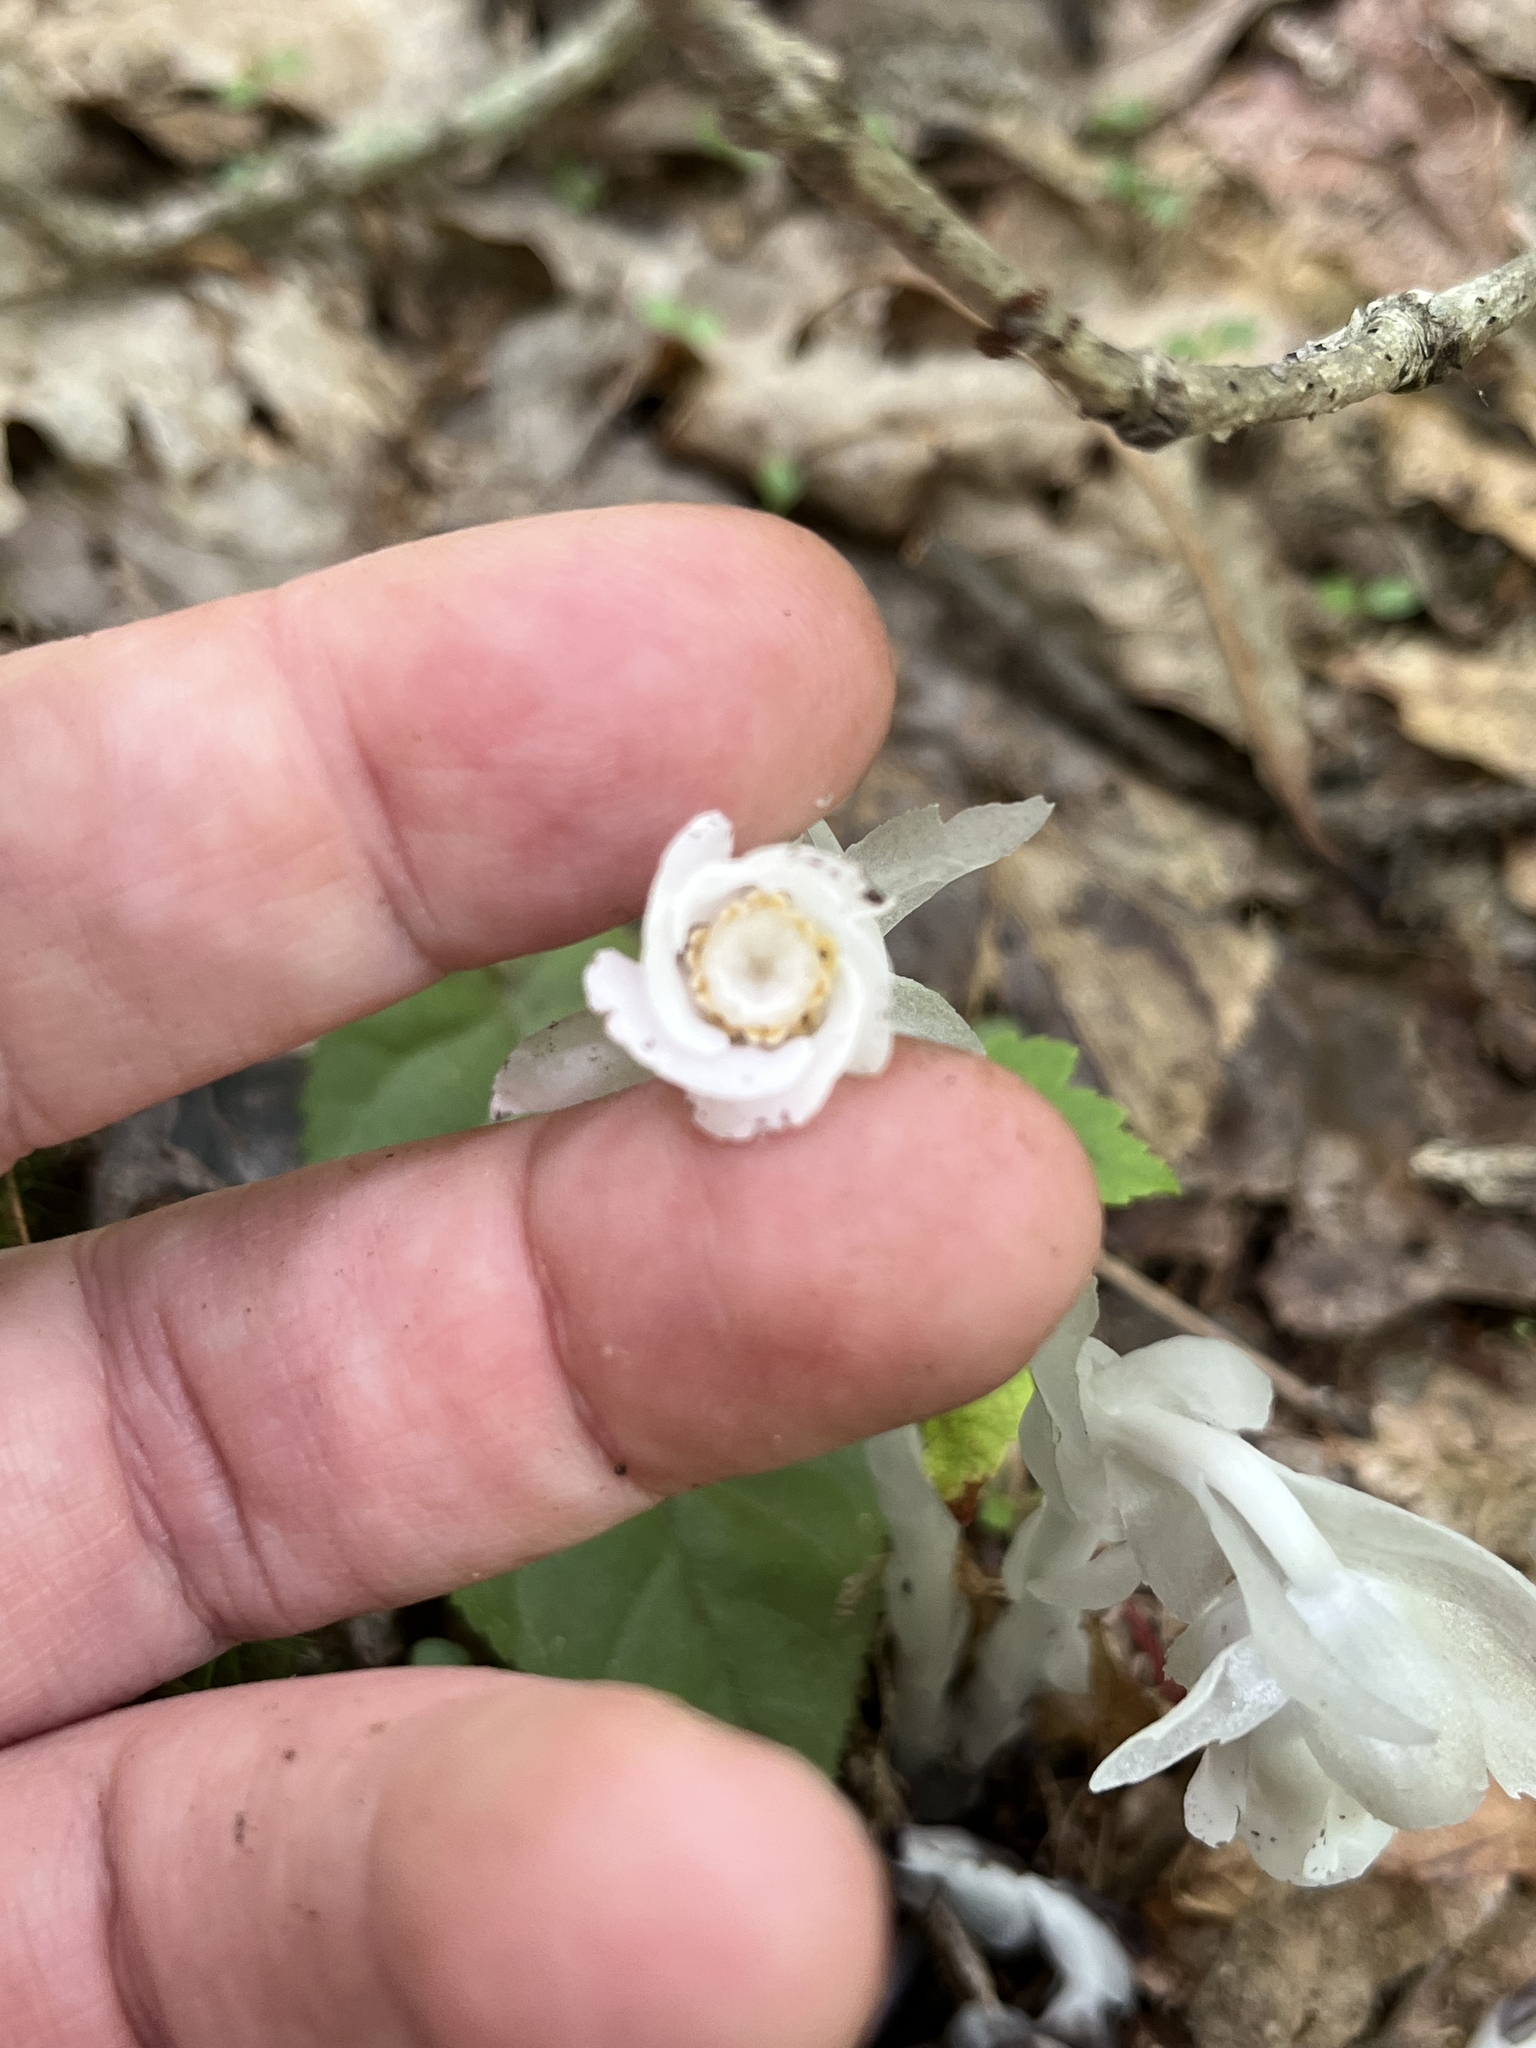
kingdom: Plantae
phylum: Tracheophyta
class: Magnoliopsida
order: Ericales
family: Ericaceae
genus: Monotropa
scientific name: Monotropa uniflora
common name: Convulsion root
